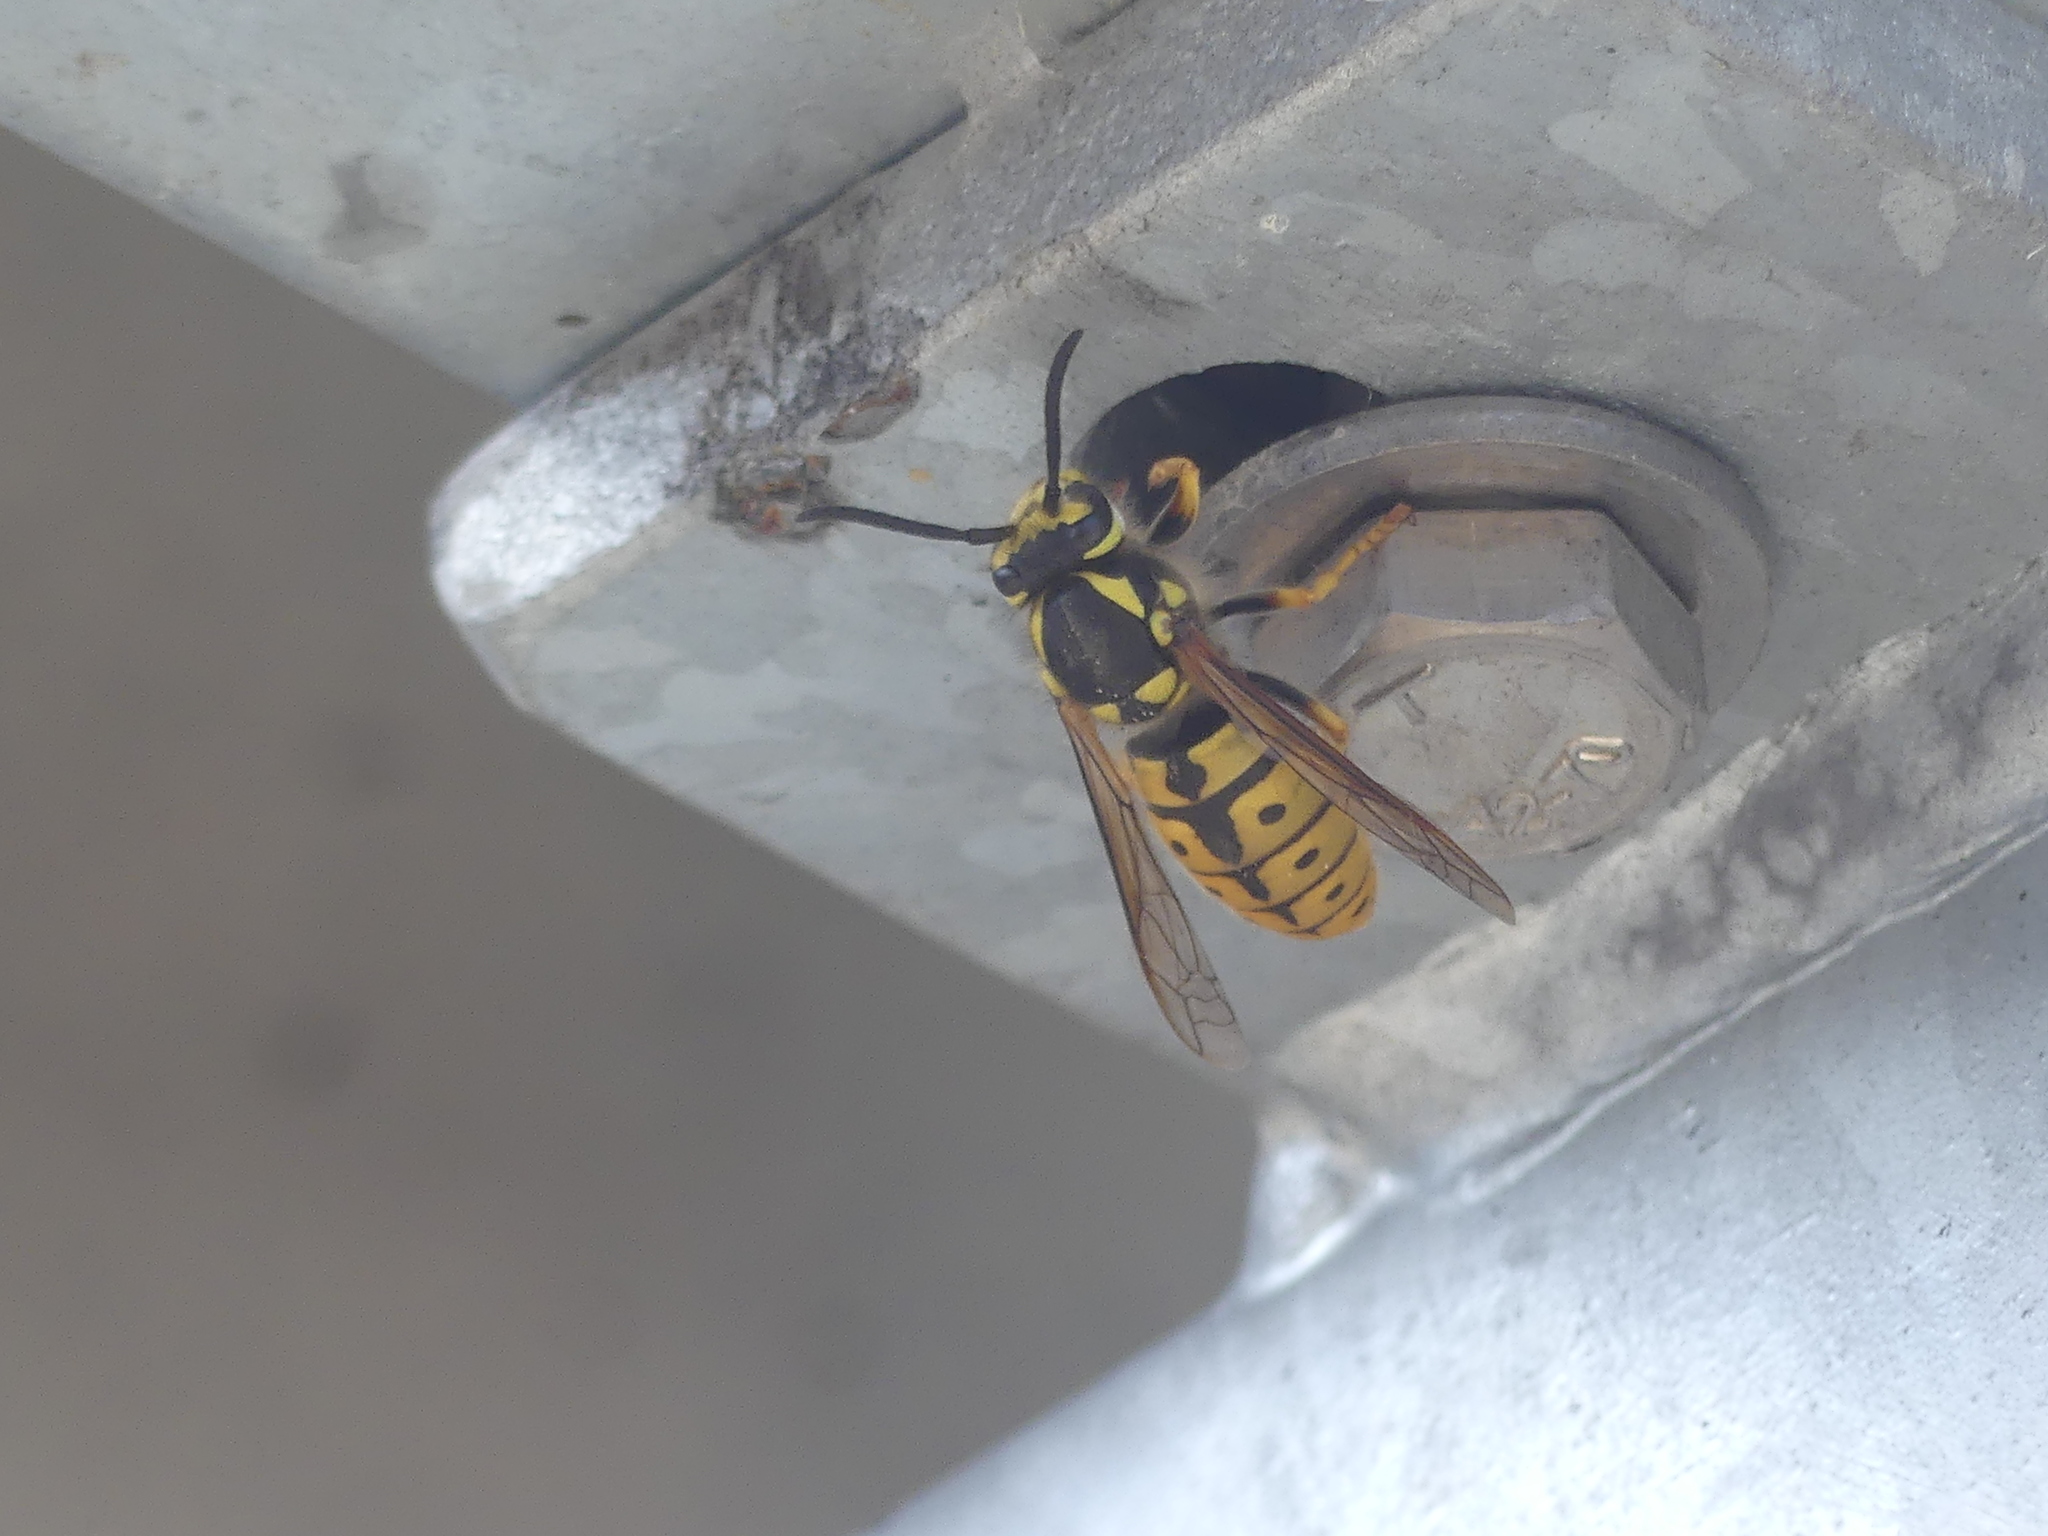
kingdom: Animalia
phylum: Arthropoda
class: Insecta
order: Hymenoptera
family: Vespidae
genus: Vespula
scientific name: Vespula germanica
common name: German wasp
